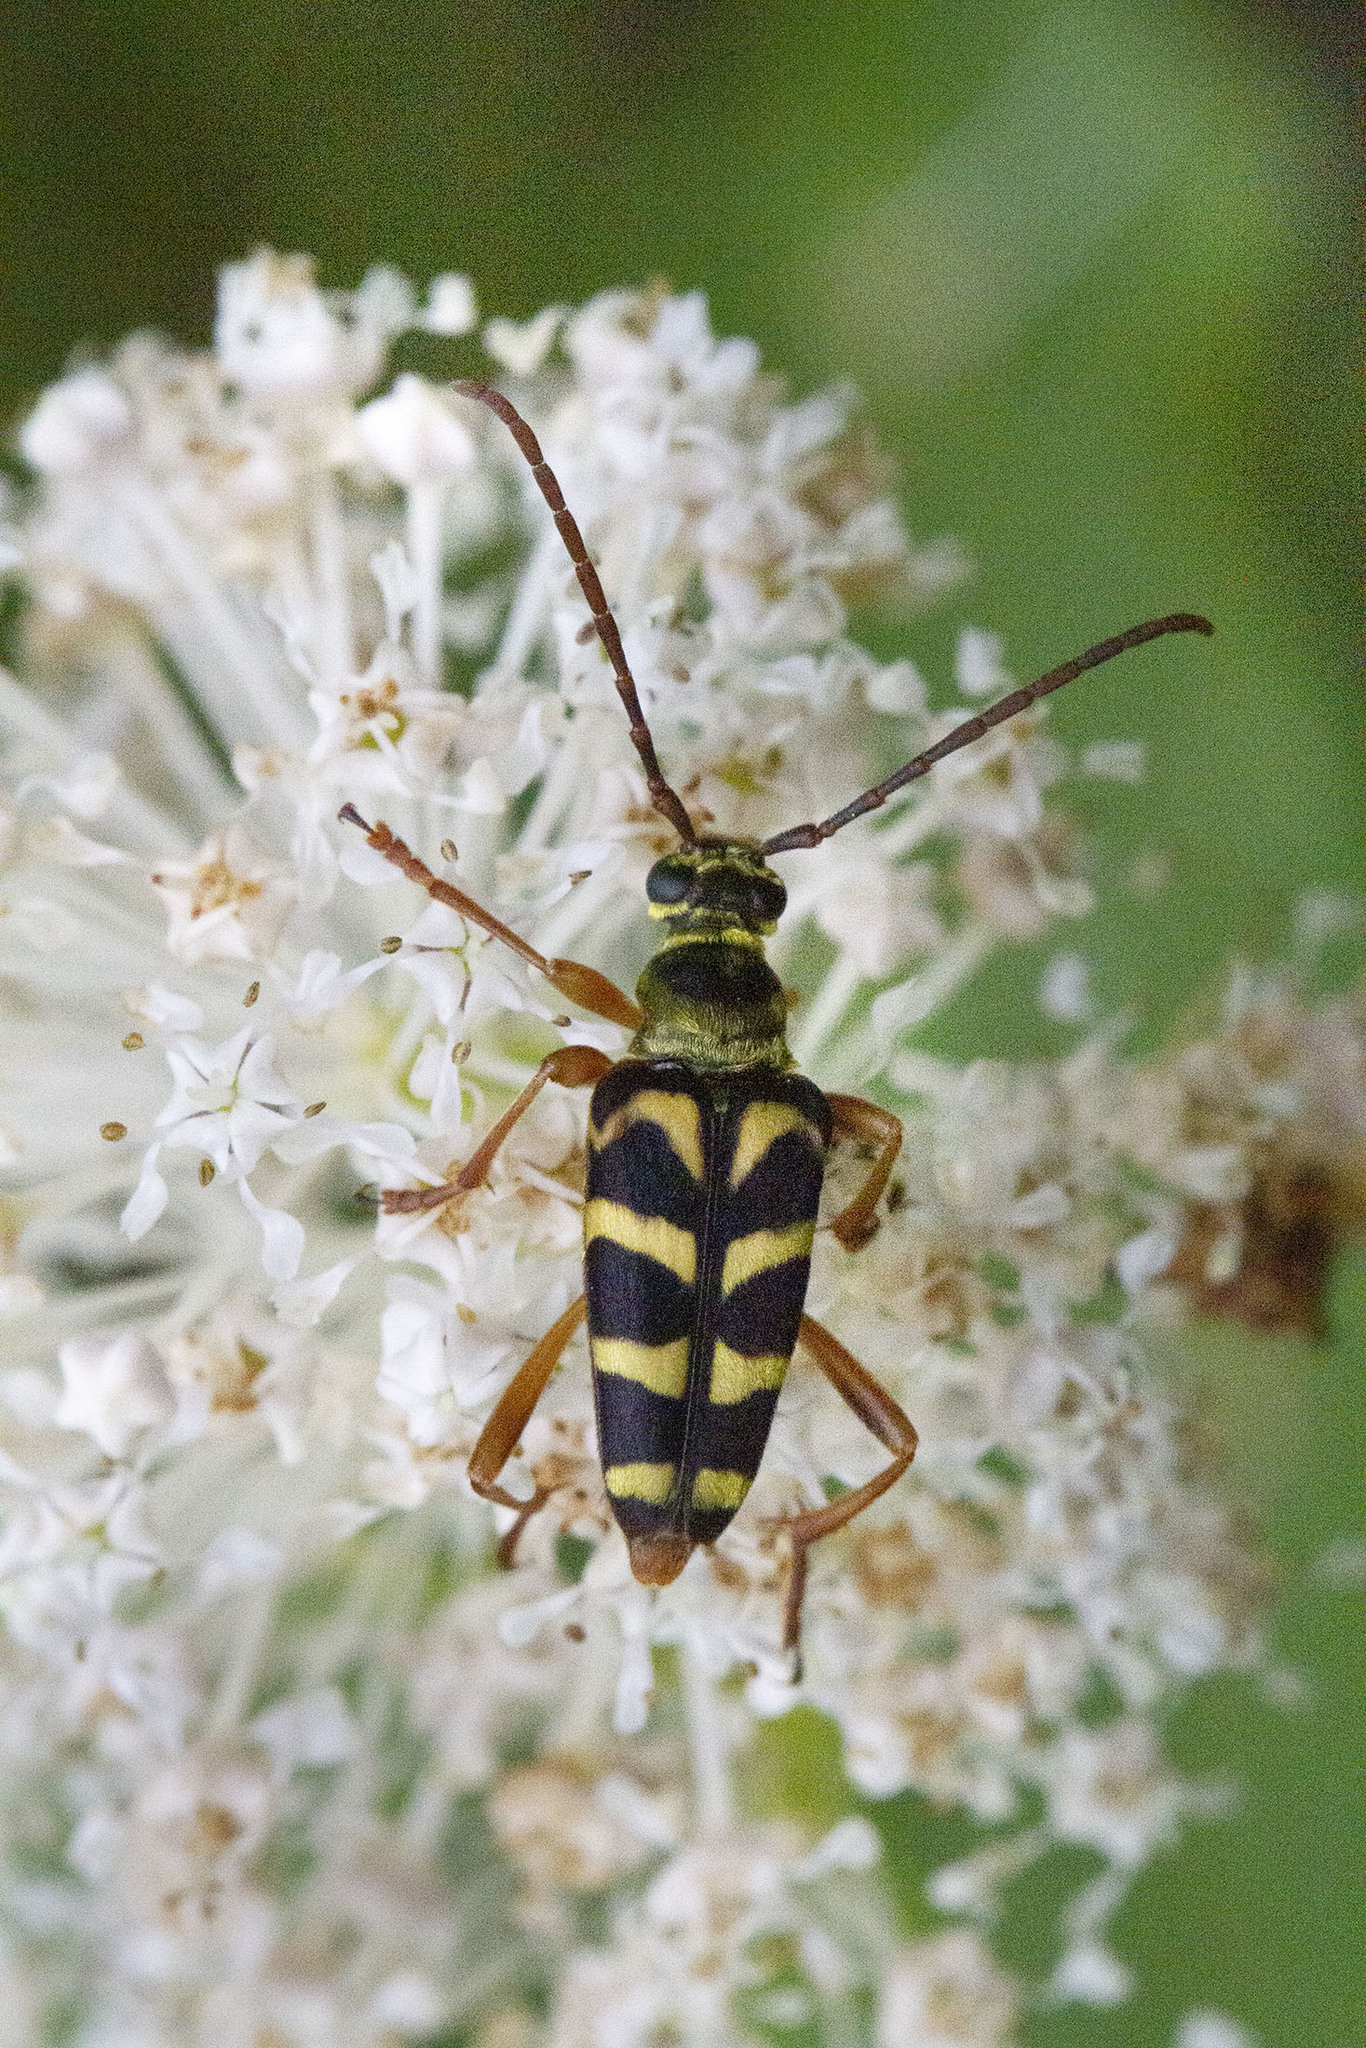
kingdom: Animalia
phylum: Arthropoda
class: Insecta
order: Coleoptera
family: Cerambycidae
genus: Strophiona
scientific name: Strophiona nitens
